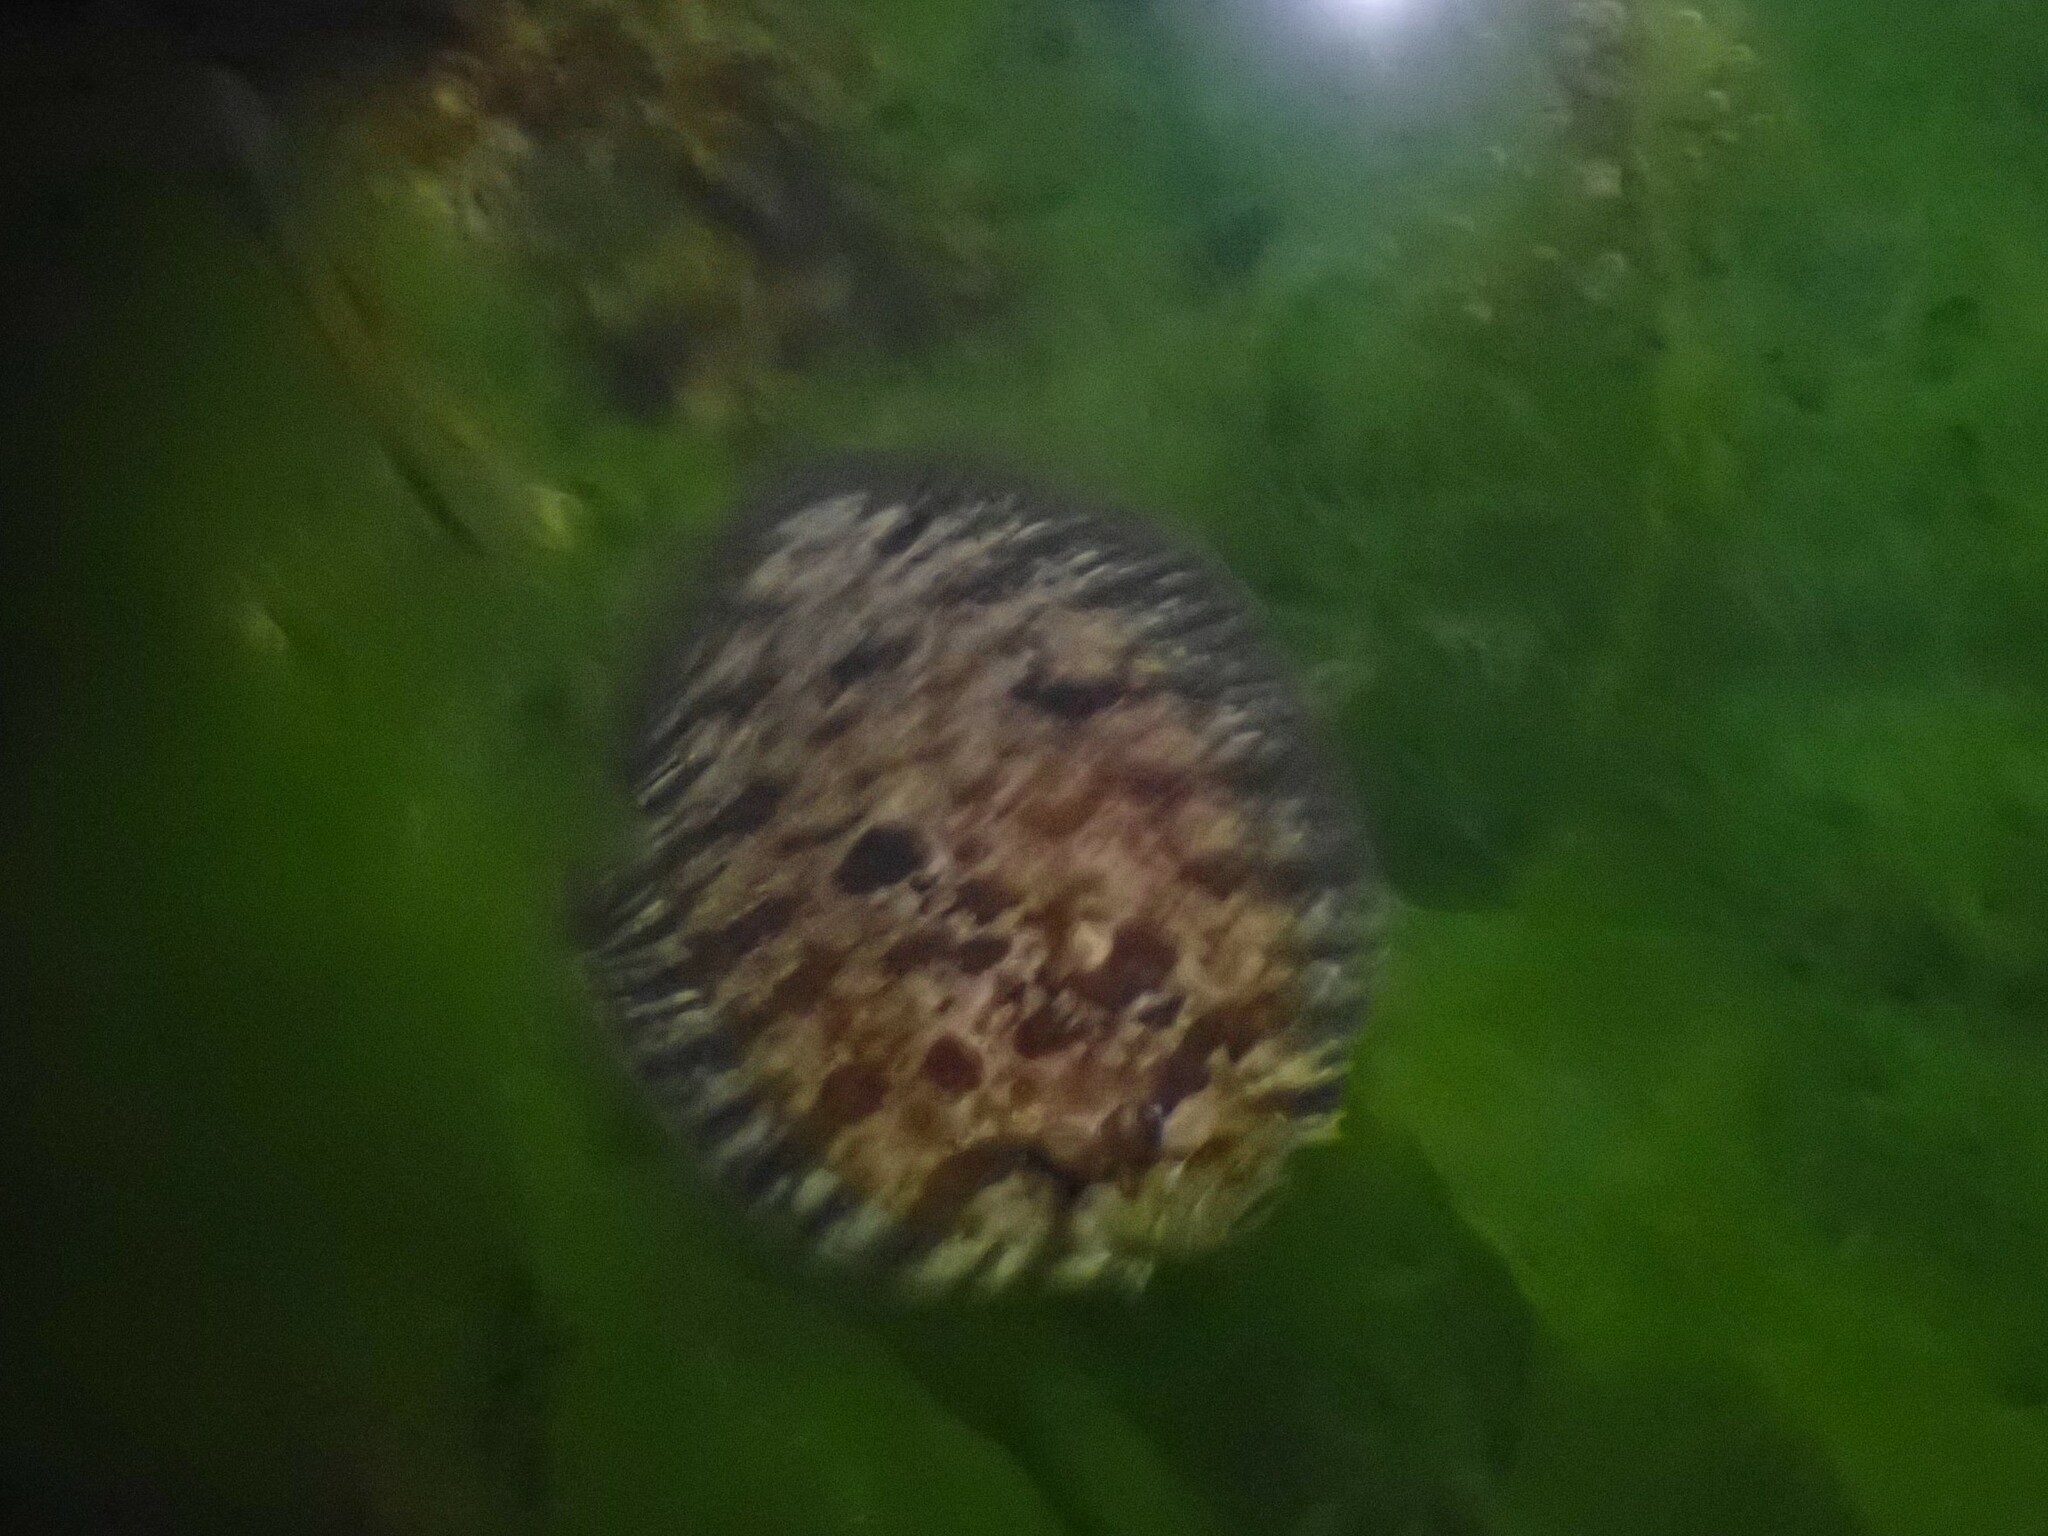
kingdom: Animalia
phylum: Chordata
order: Pleuronectiformes
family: Scophthalmidae
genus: Zeugopterus
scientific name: Zeugopterus punctatus
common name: Topknot
